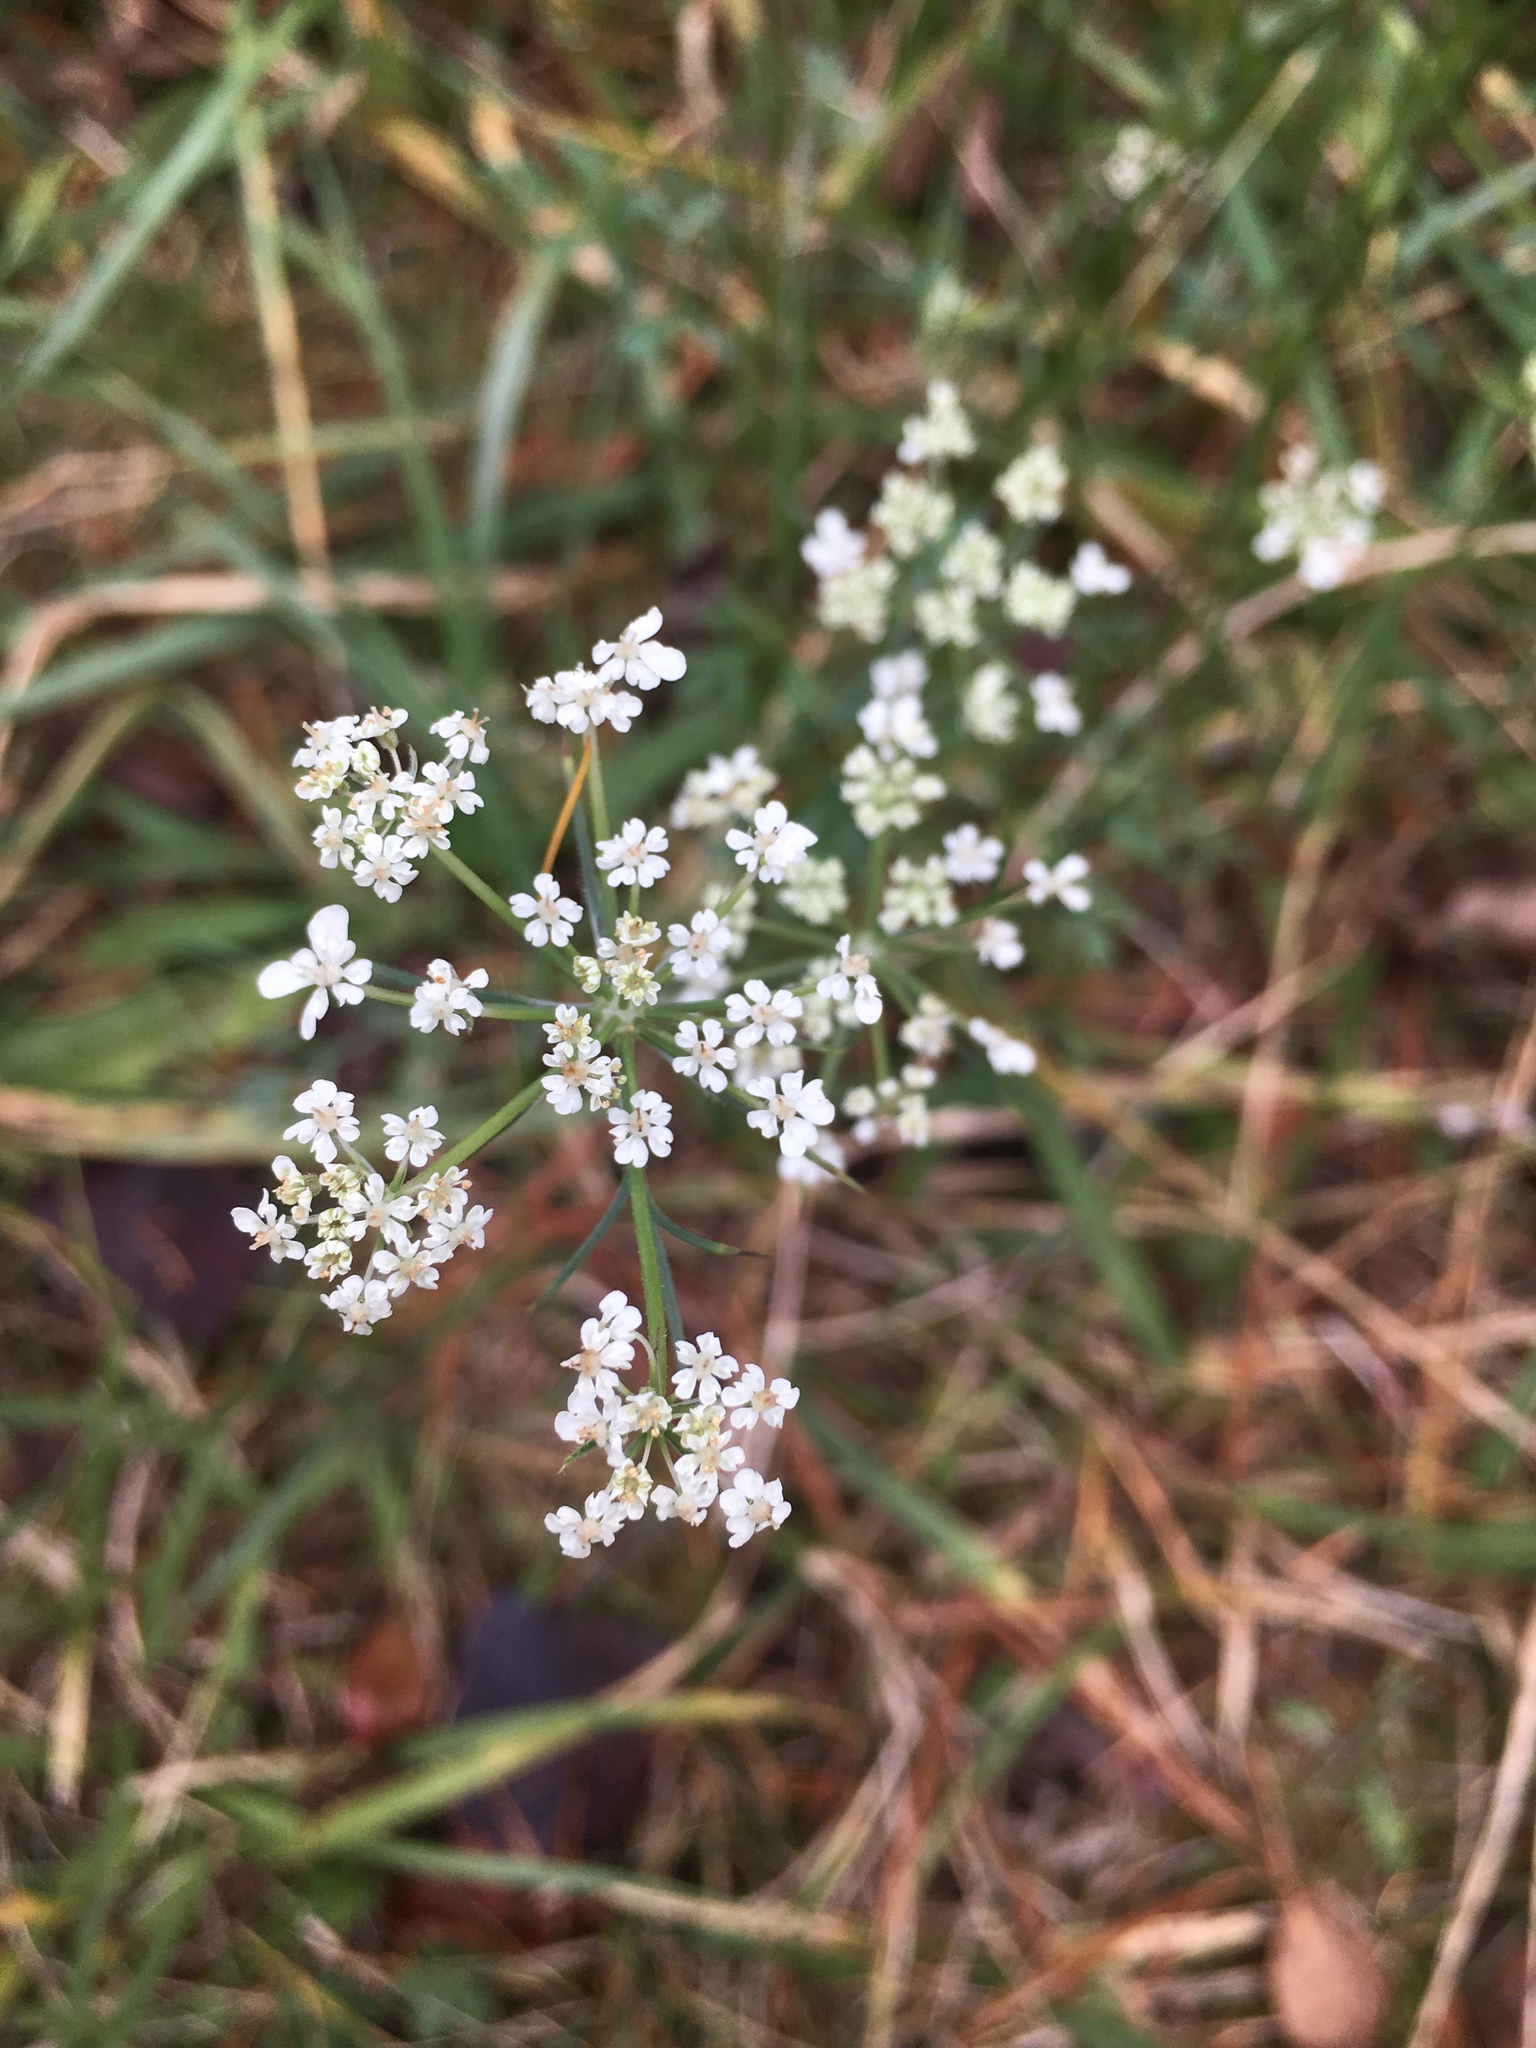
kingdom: Plantae
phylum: Tracheophyta
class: Magnoliopsida
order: Apiales
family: Apiaceae
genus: Daucus
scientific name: Daucus carota
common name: Wild carrot
